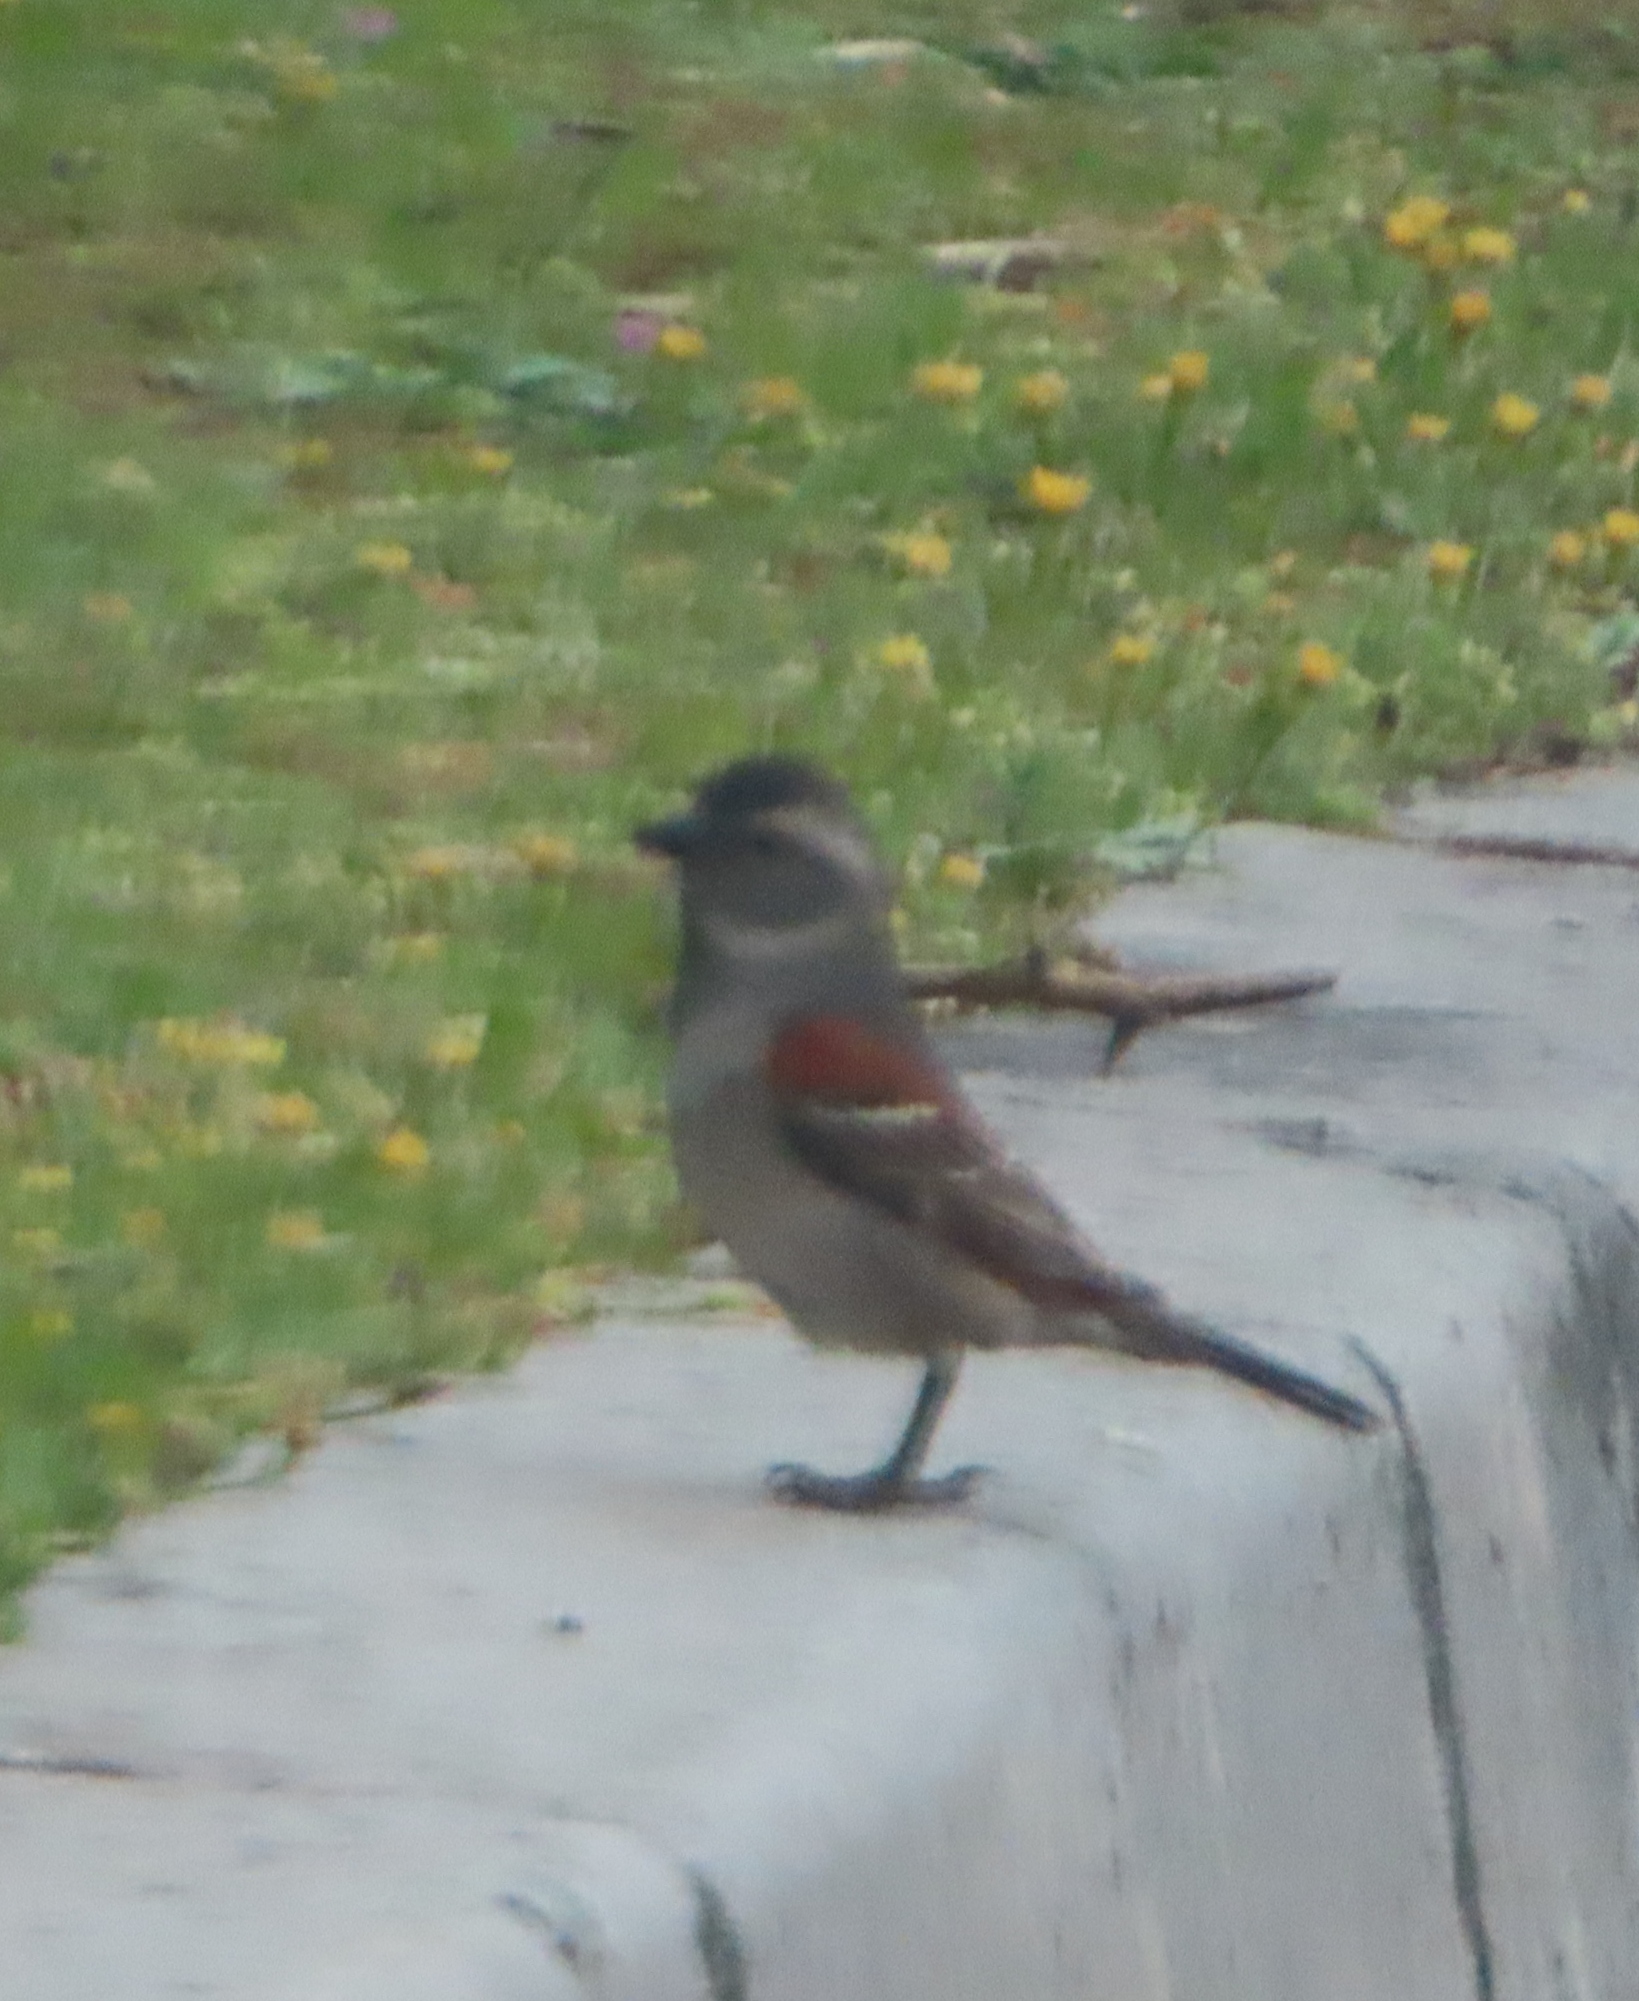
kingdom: Animalia
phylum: Chordata
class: Aves
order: Passeriformes
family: Passeridae
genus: Passer
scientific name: Passer melanurus
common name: Cape sparrow
